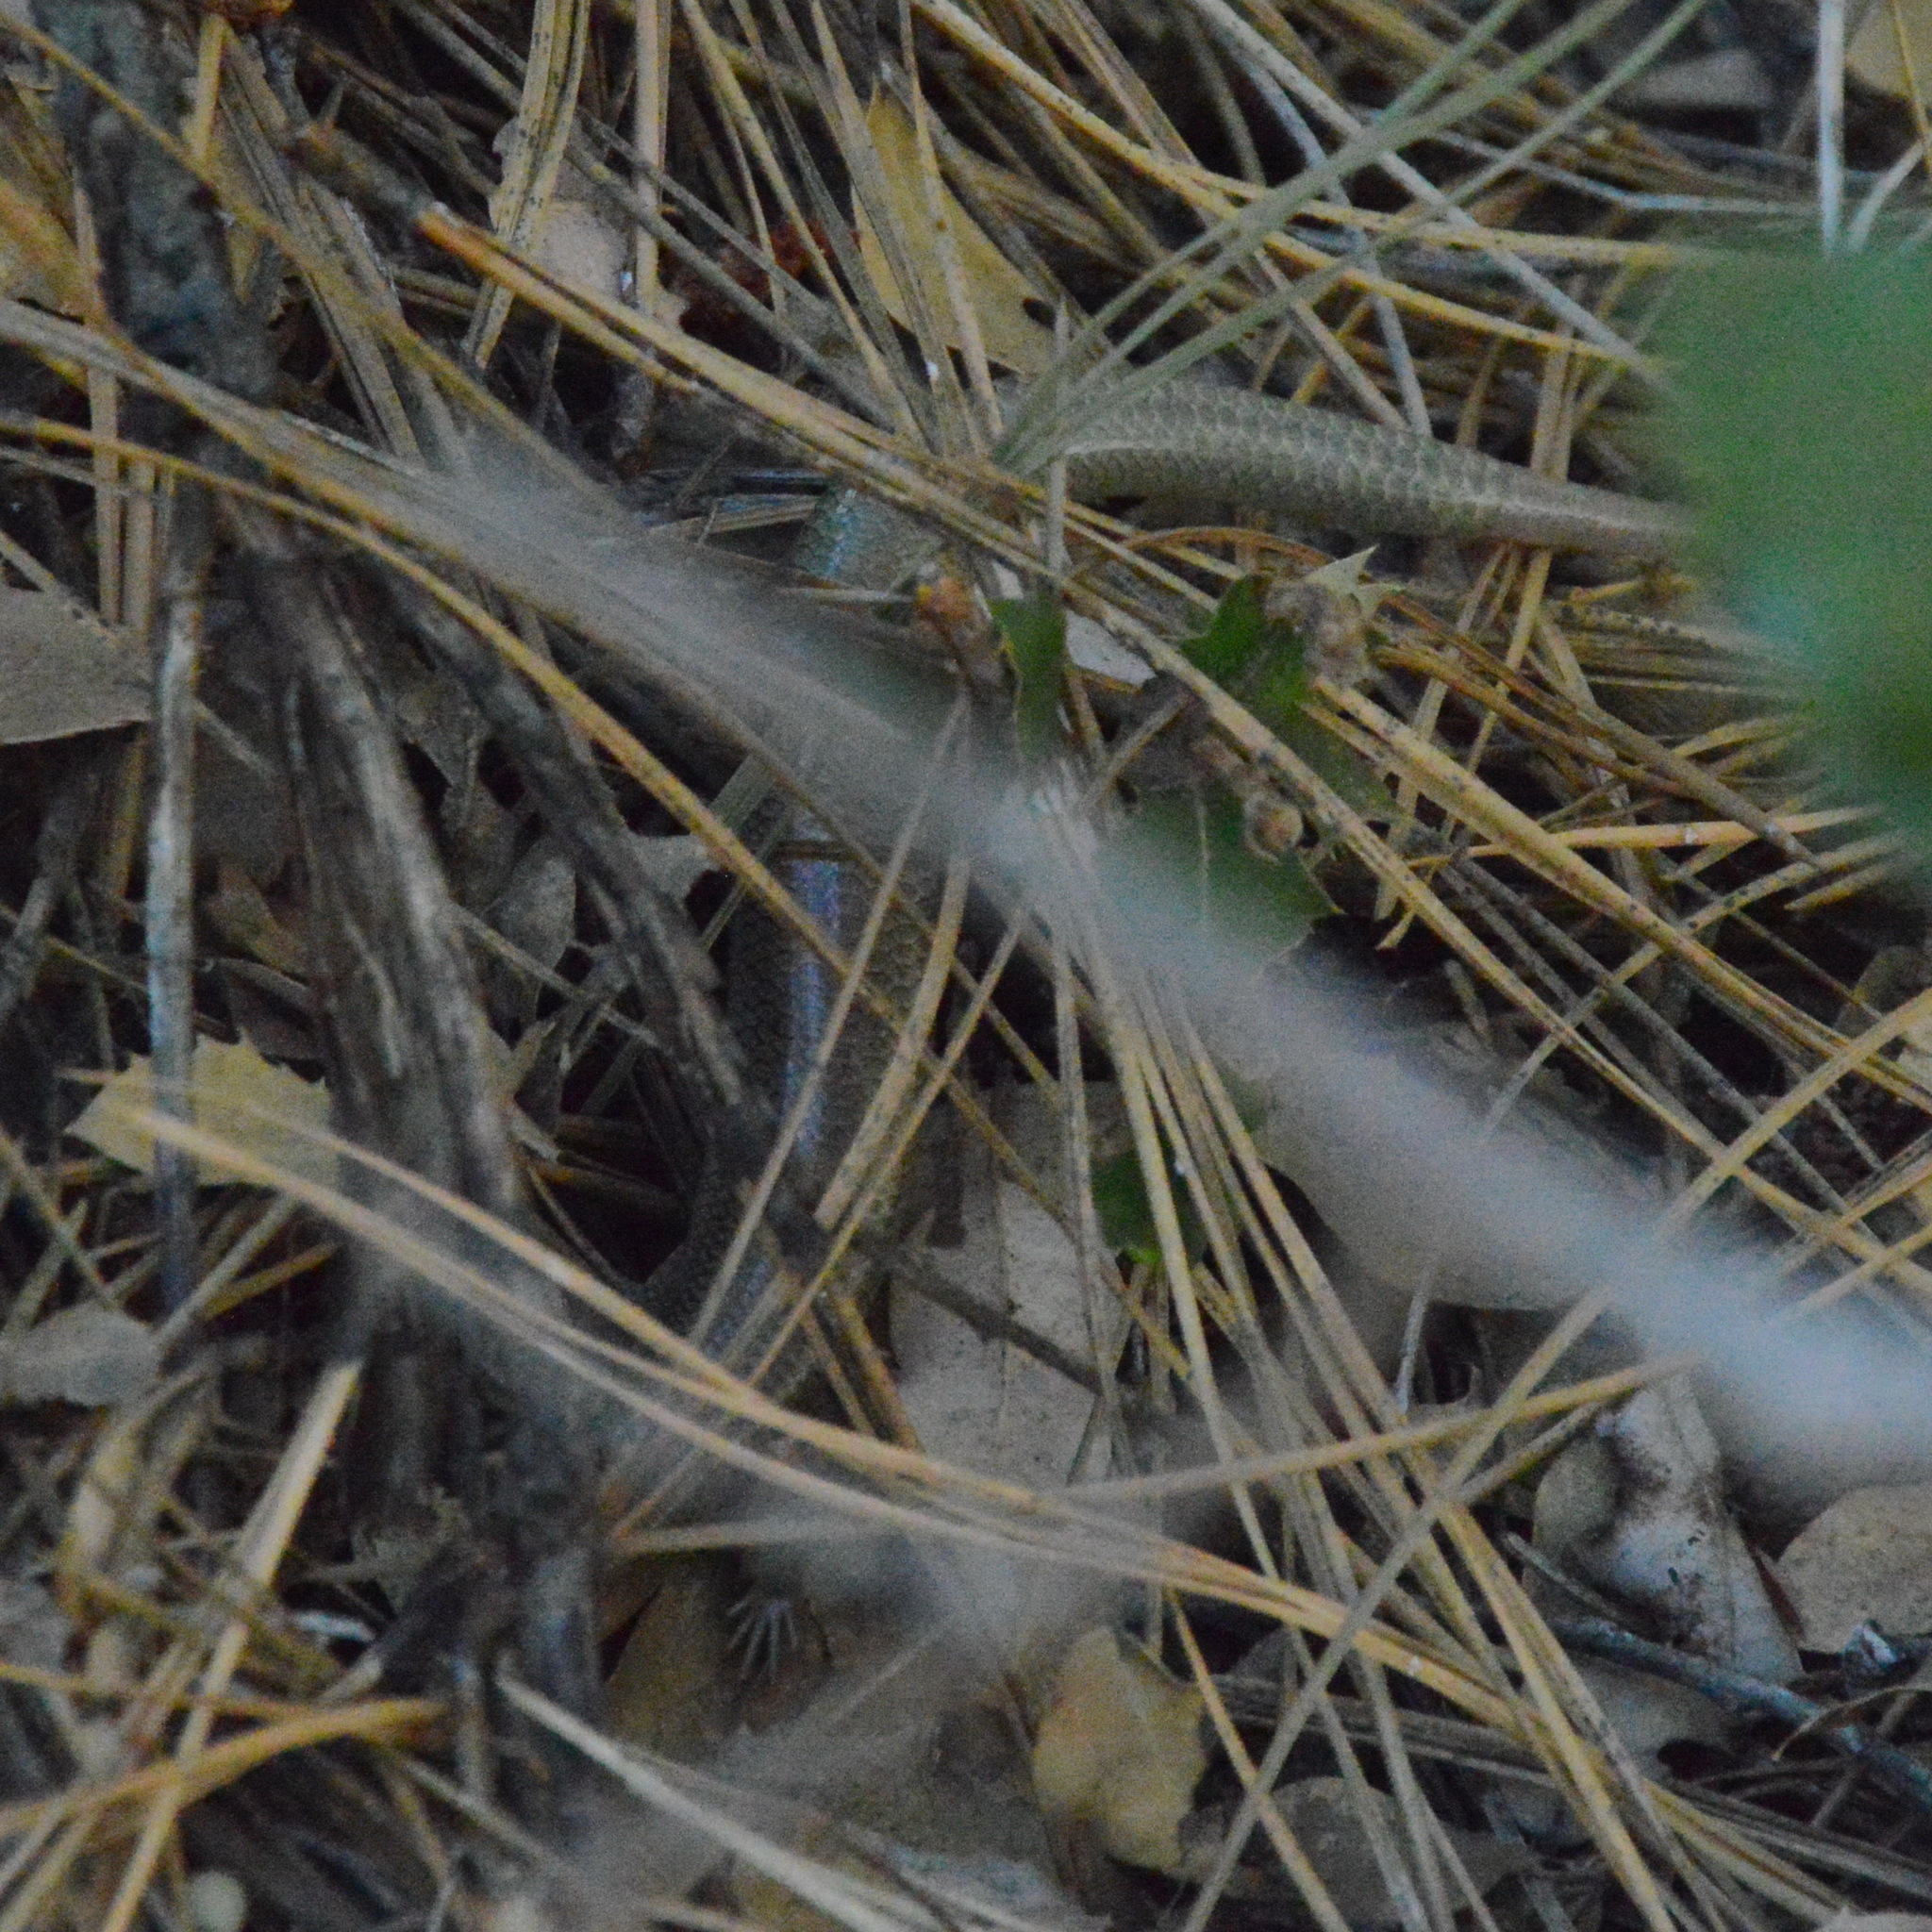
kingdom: Animalia
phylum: Chordata
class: Squamata
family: Scincidae
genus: Plestiodon
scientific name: Plestiodon gilberti
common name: Gilbert's skink
